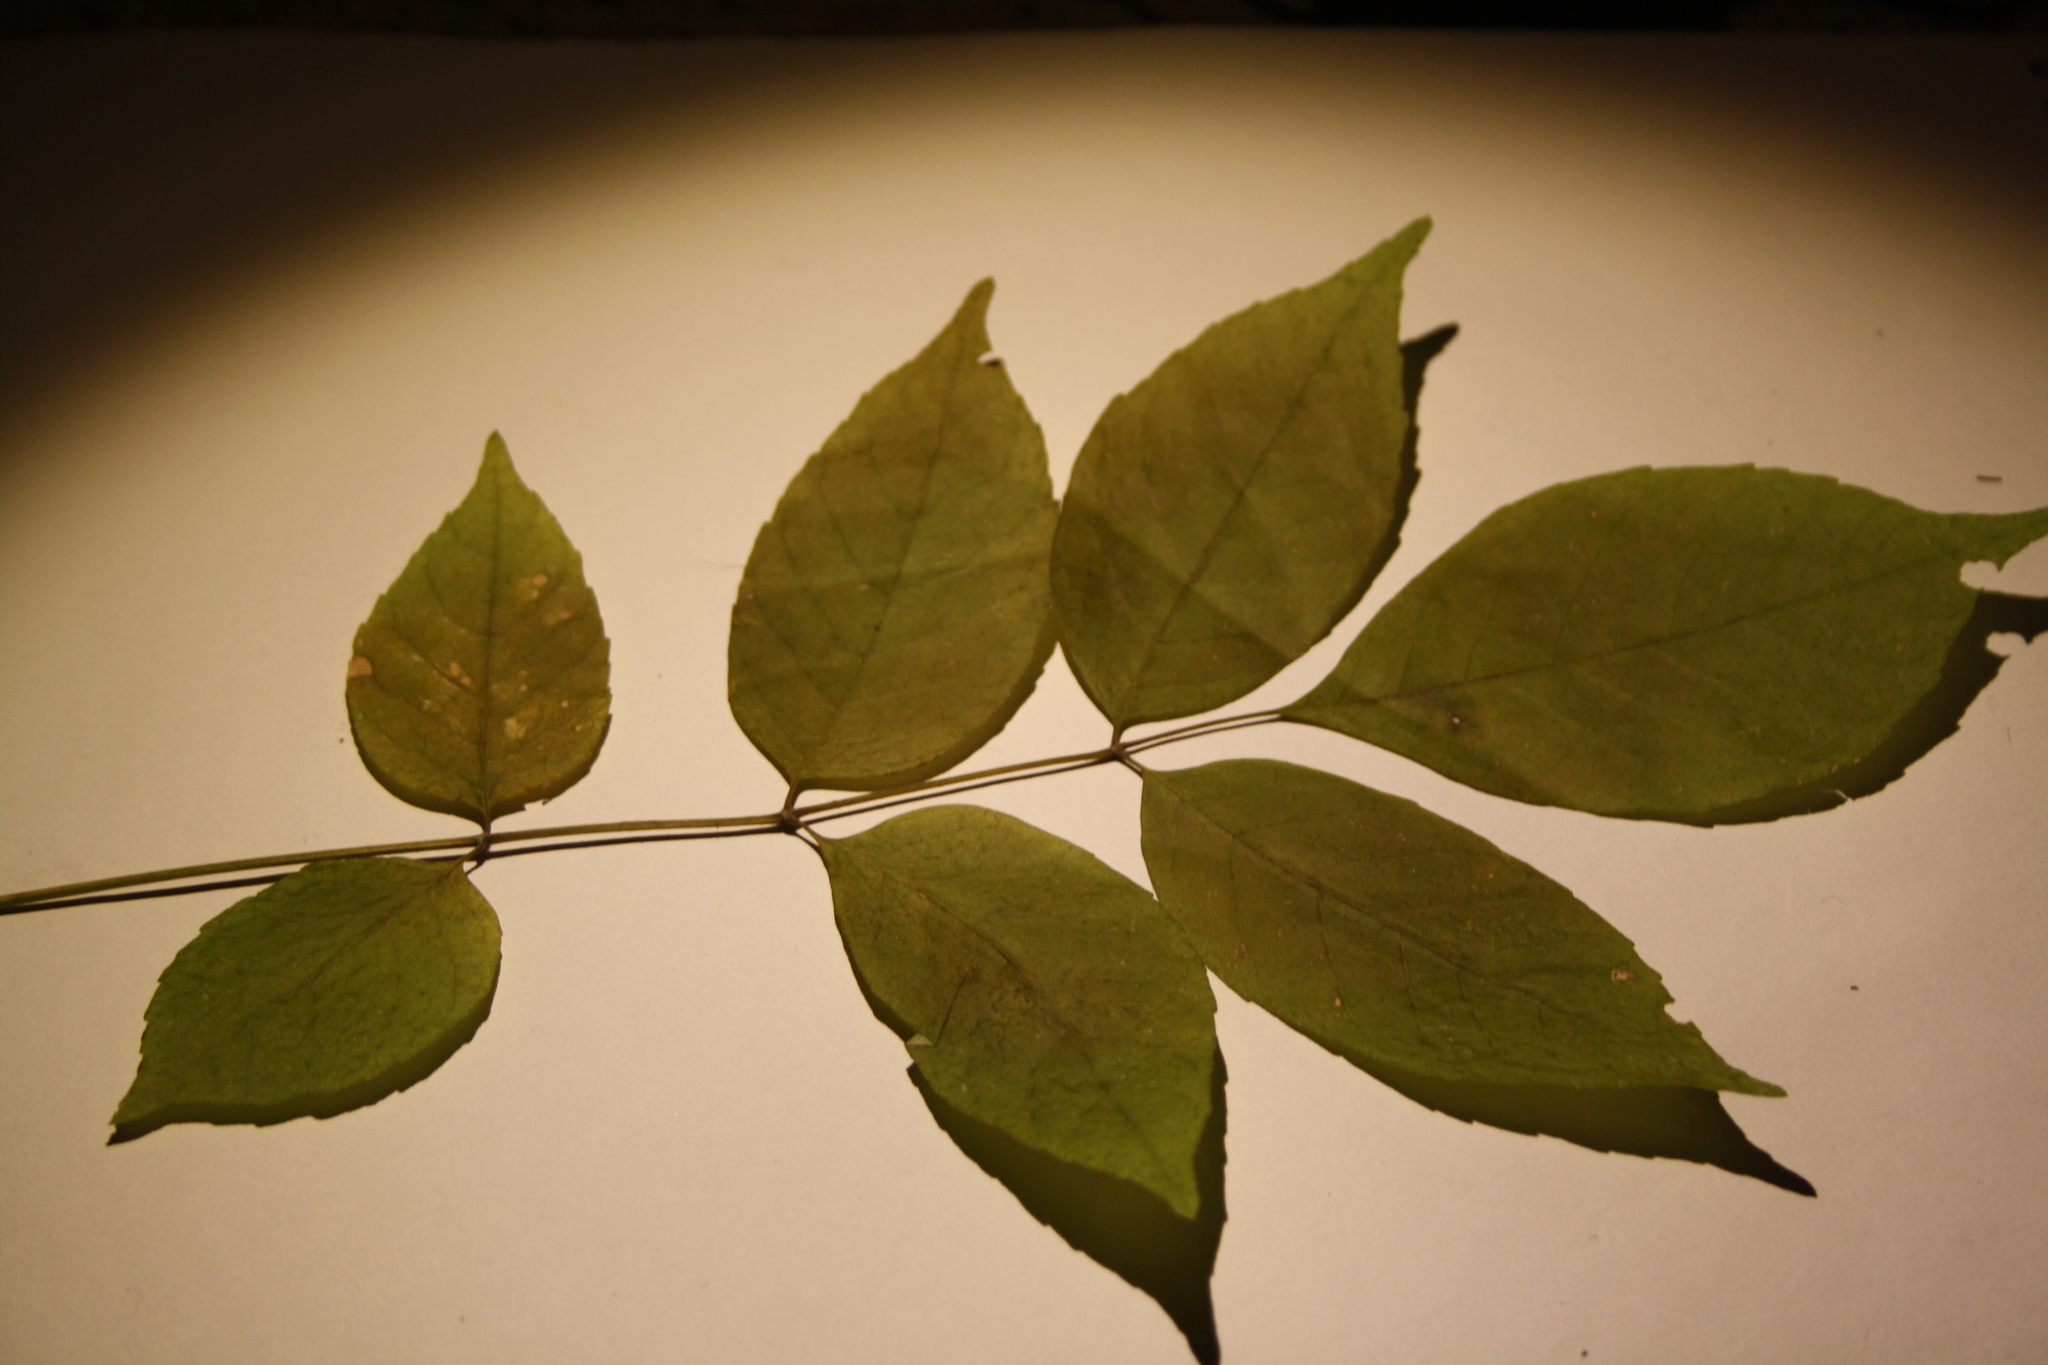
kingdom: Plantae
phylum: Tracheophyta
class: Magnoliopsida
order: Lamiales
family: Oleaceae
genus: Fraxinus
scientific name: Fraxinus americana
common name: White ash
